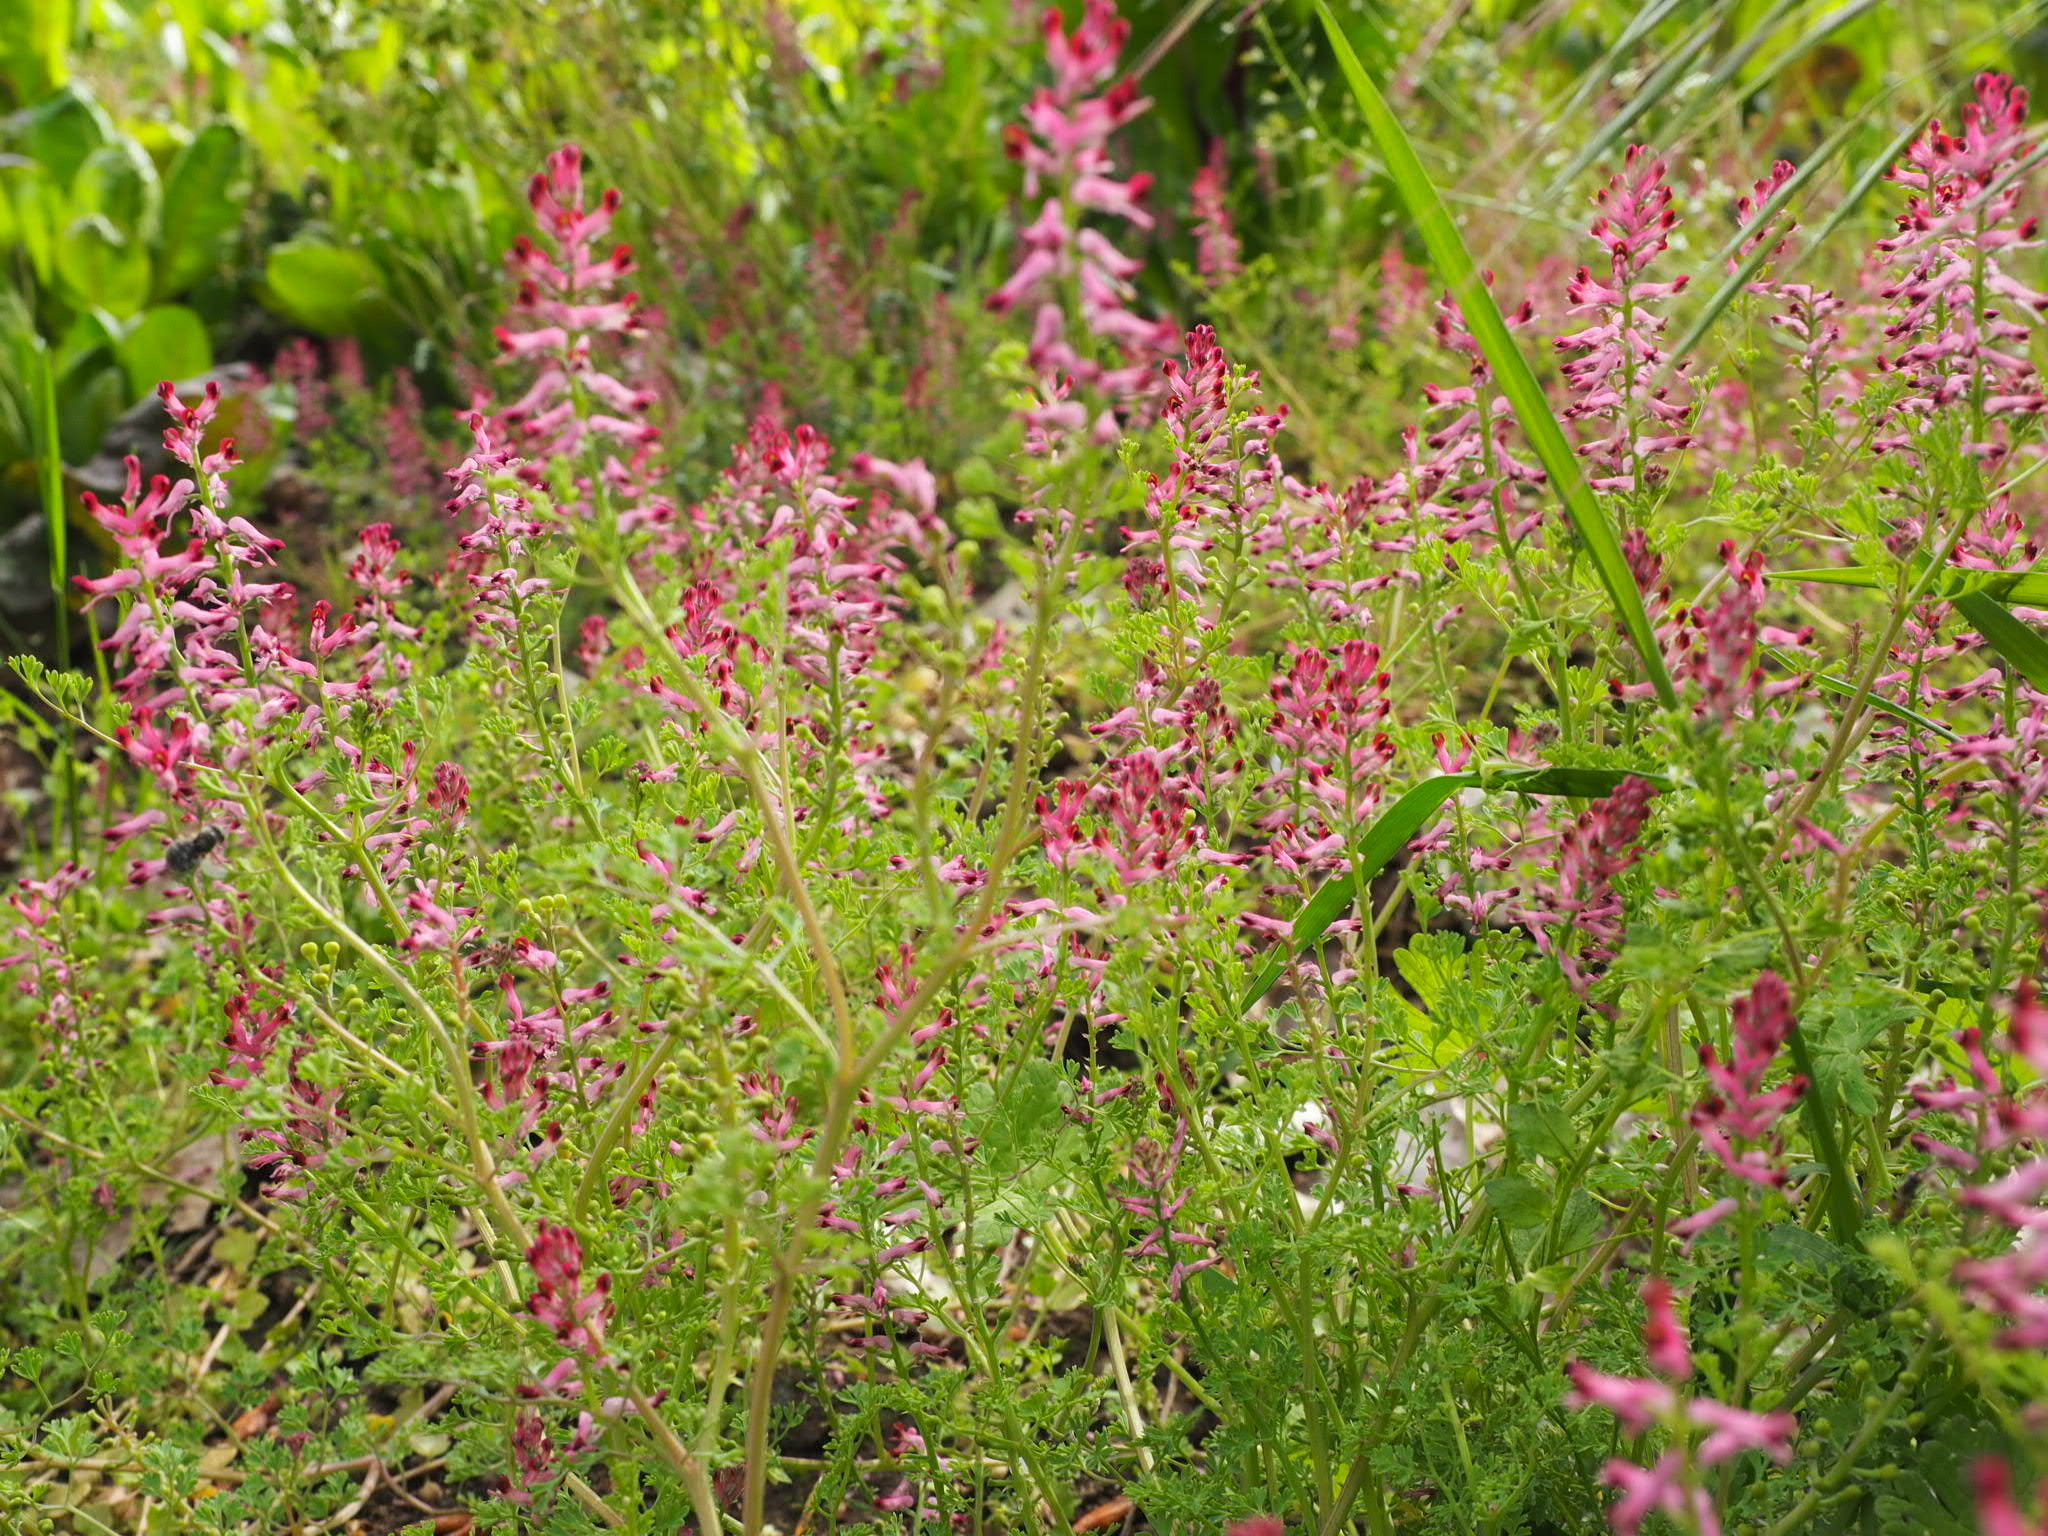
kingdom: Plantae
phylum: Tracheophyta
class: Magnoliopsida
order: Ranunculales
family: Papaveraceae
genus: Fumaria
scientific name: Fumaria officinalis
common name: Common fumitory
